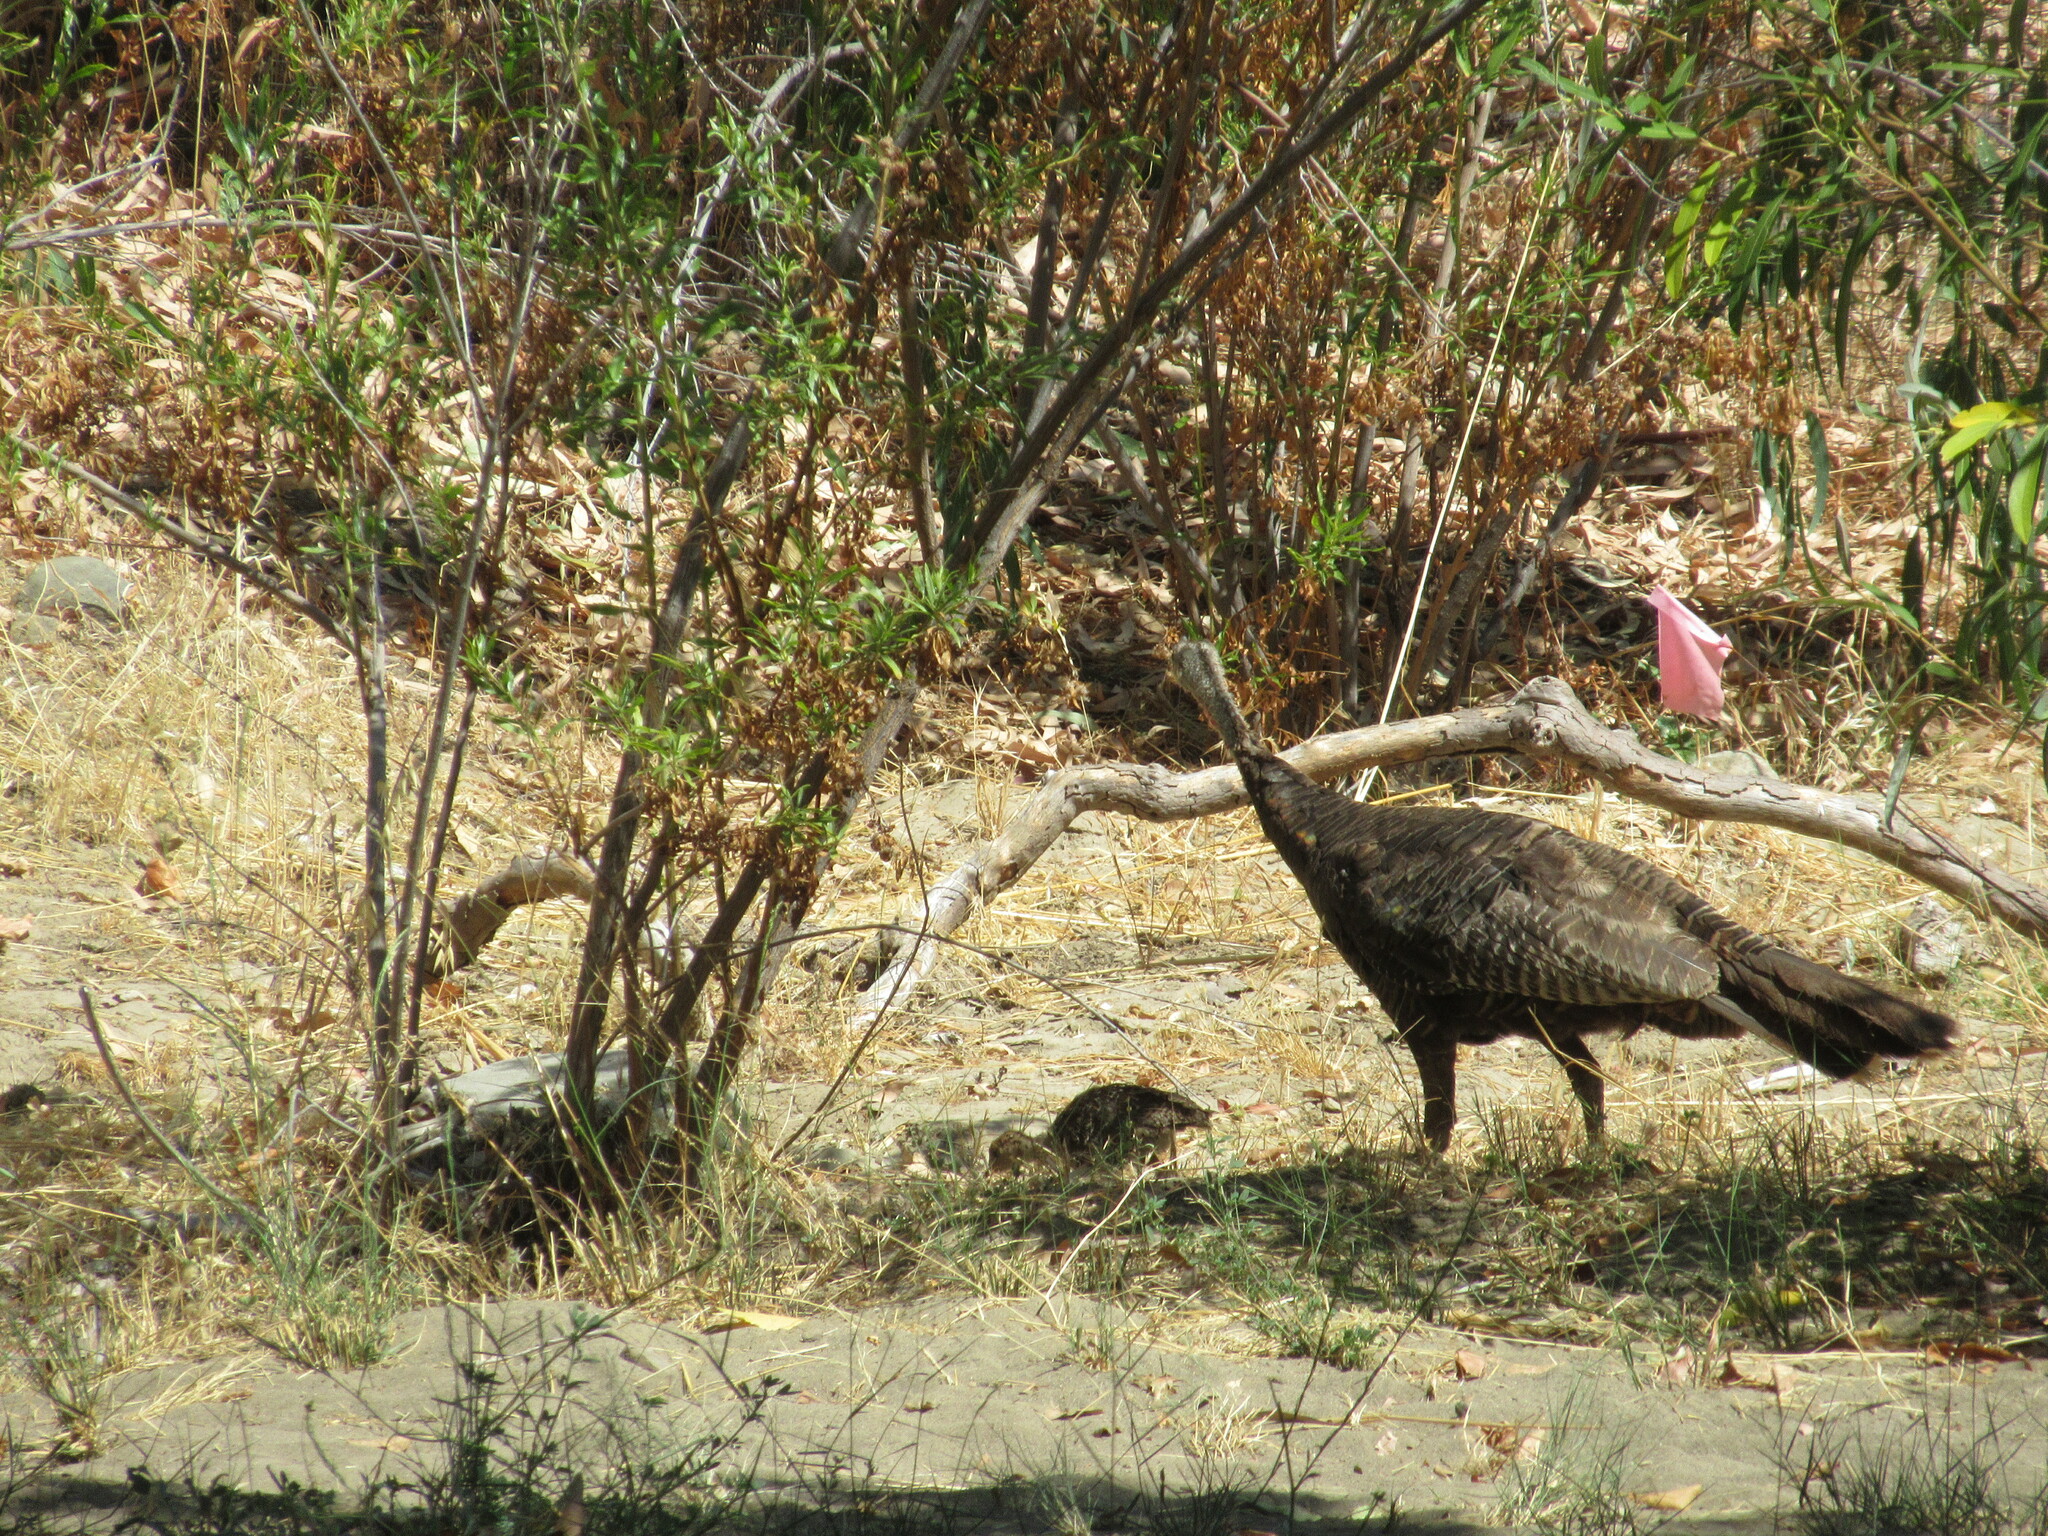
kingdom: Animalia
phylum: Chordata
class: Aves
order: Galliformes
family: Phasianidae
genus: Meleagris
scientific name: Meleagris gallopavo
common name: Wild turkey
